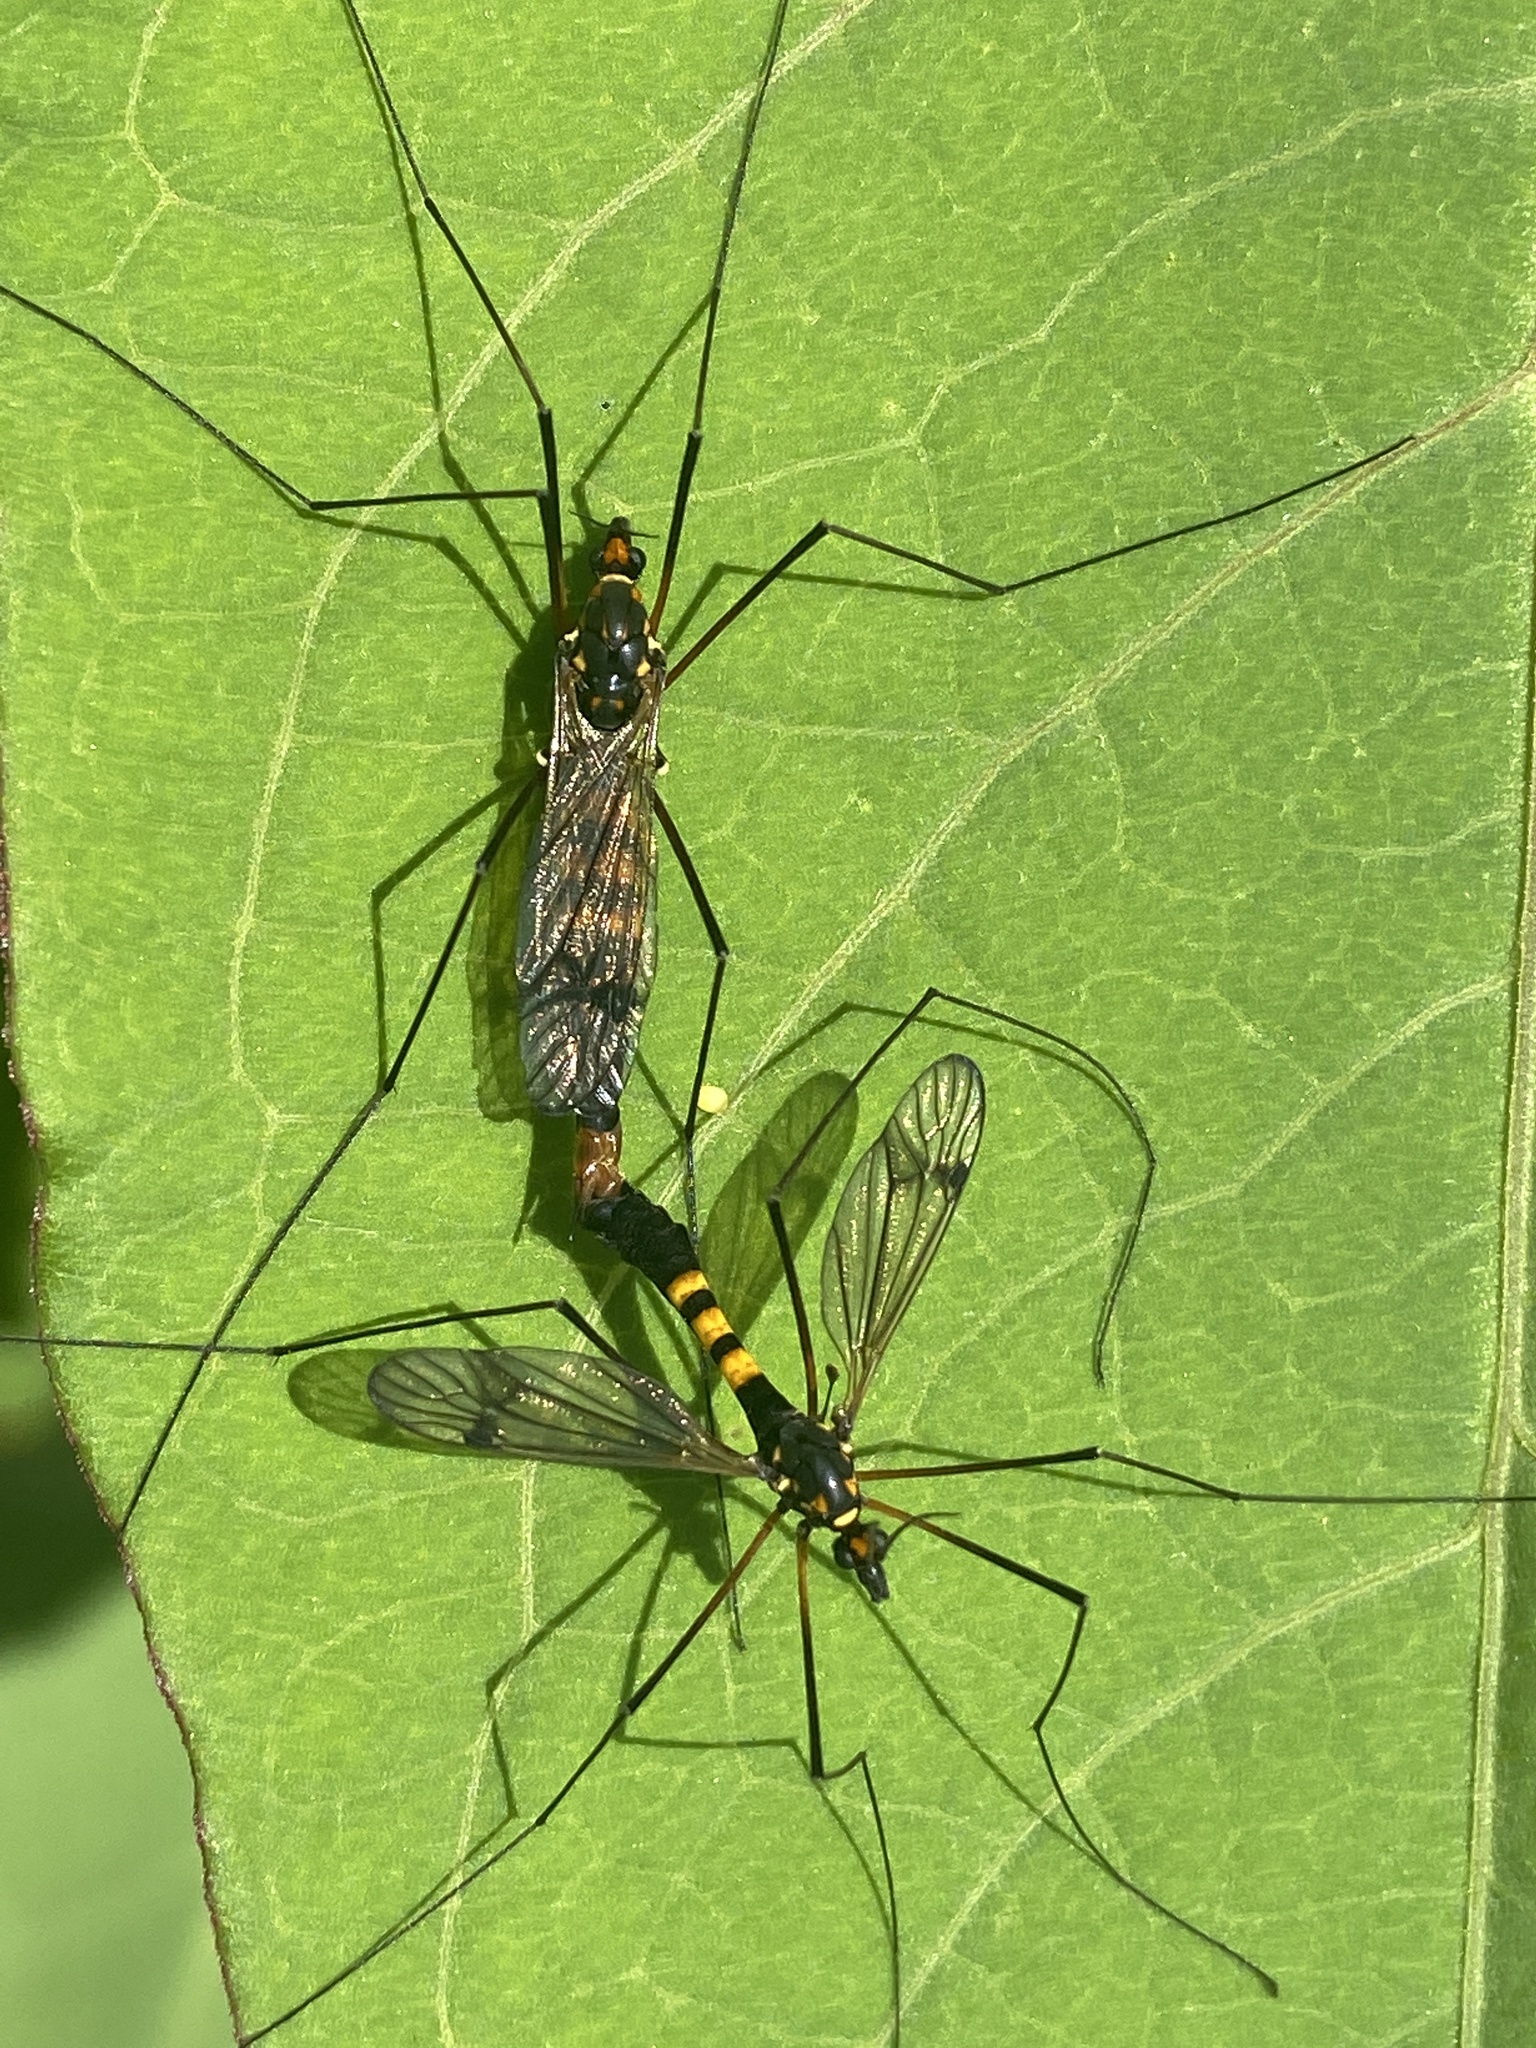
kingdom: Animalia
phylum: Arthropoda
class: Insecta
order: Diptera
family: Tipulidae
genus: Nephrotoma
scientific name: Nephrotoma crocata
